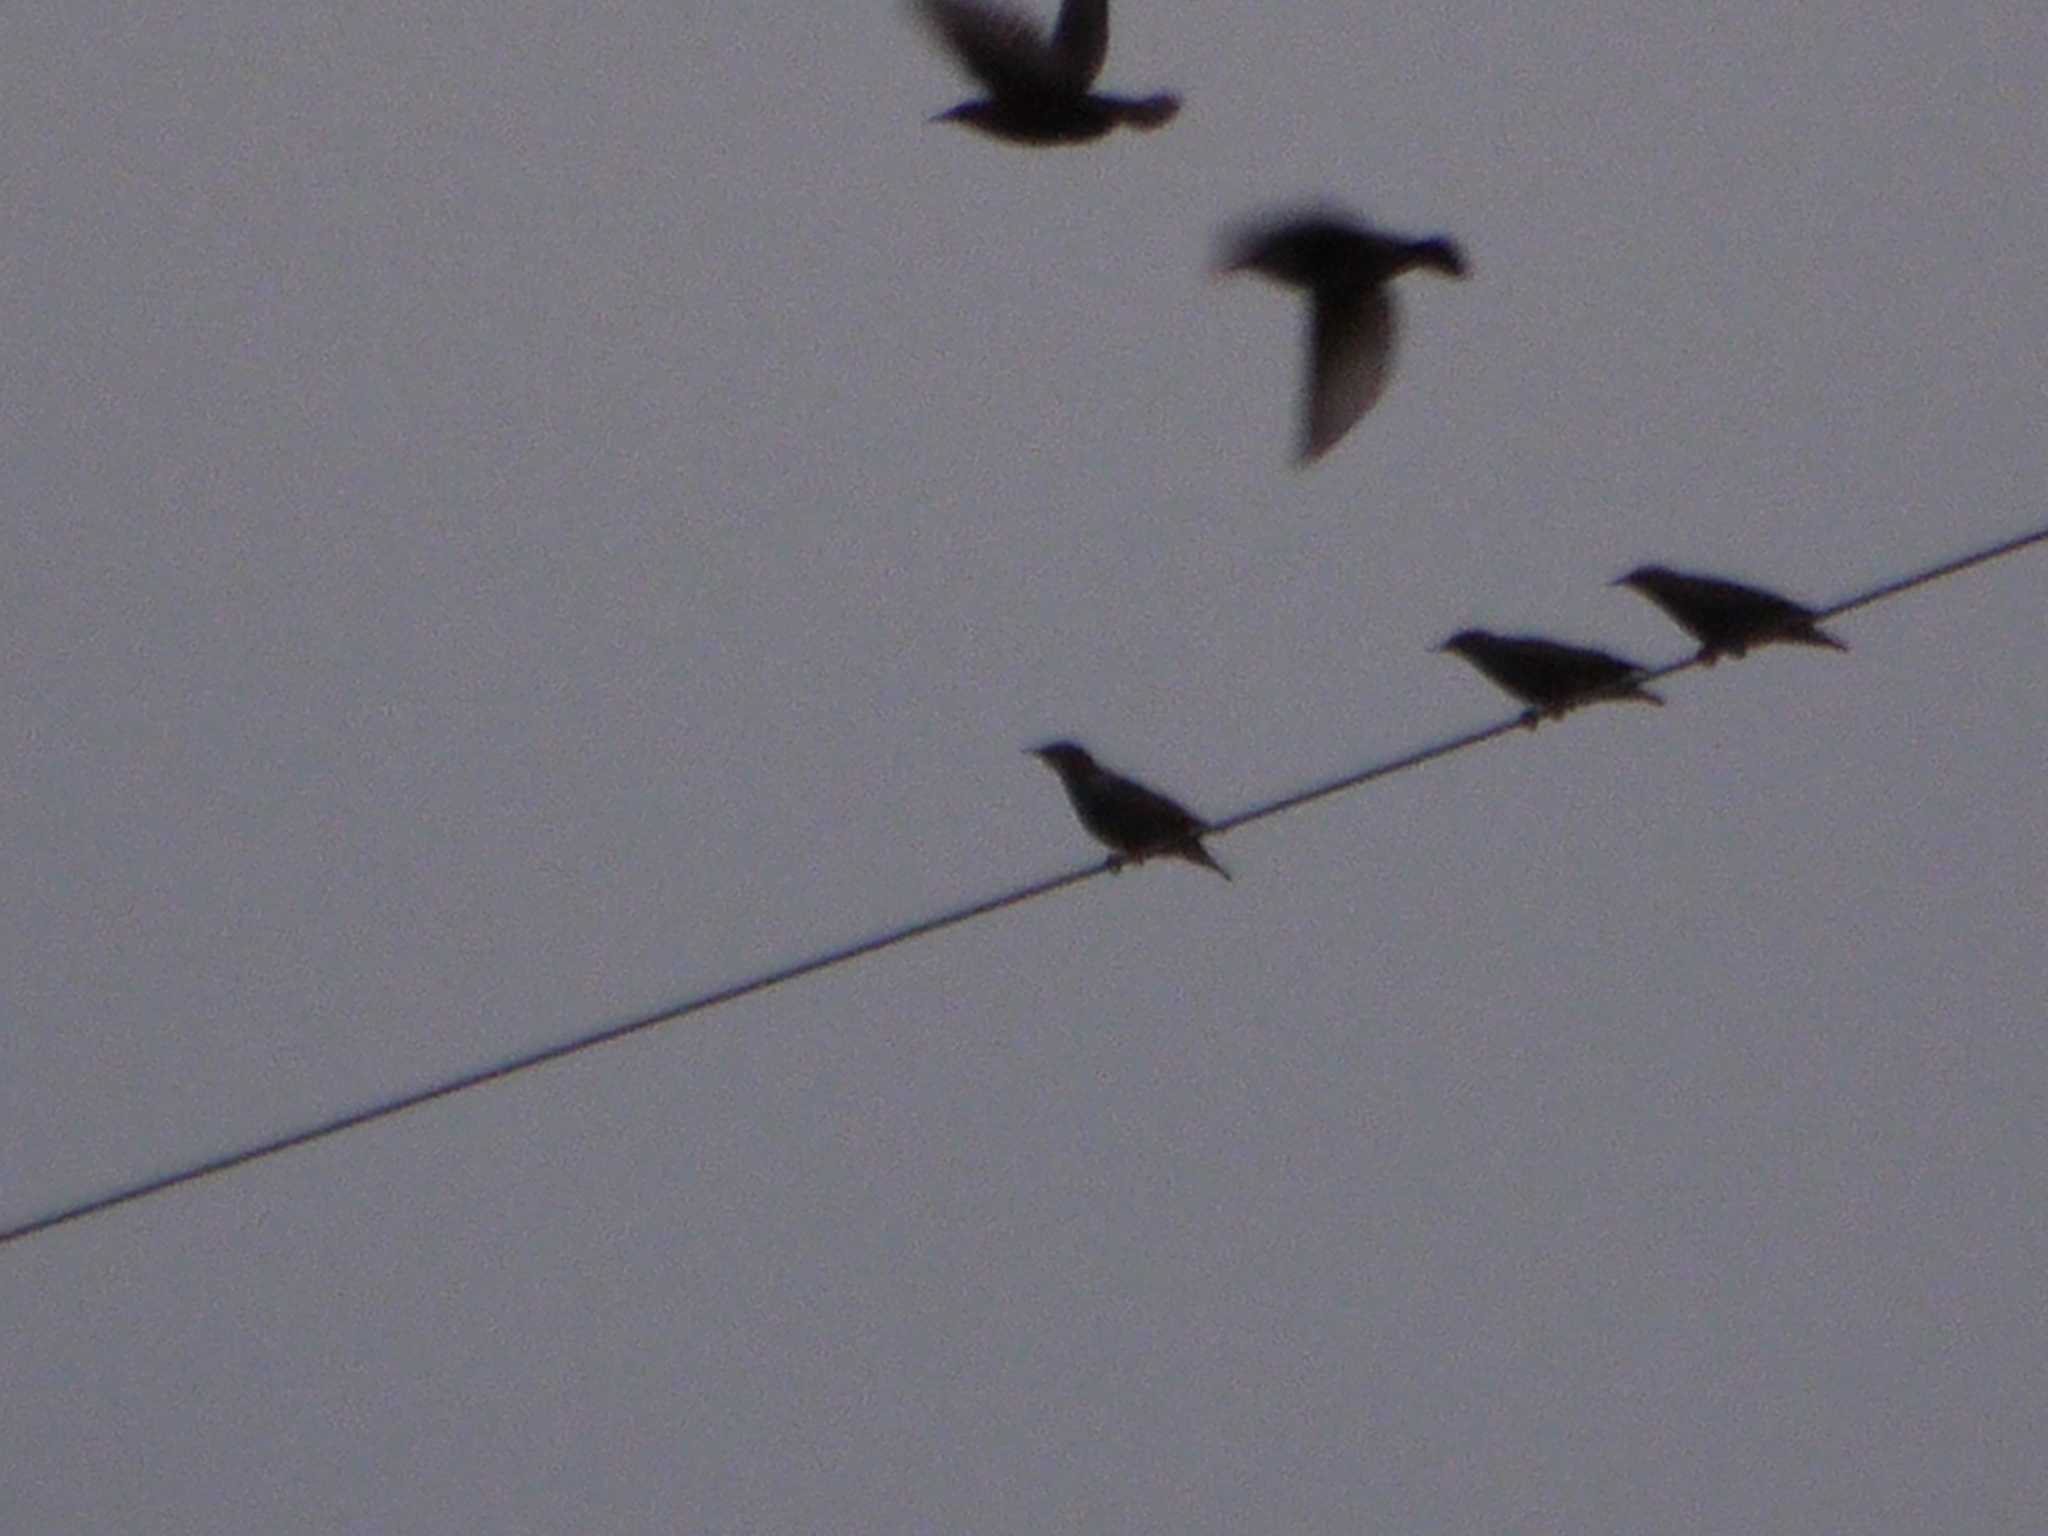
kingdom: Animalia
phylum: Chordata
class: Aves
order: Passeriformes
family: Sturnidae
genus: Sturnus
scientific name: Sturnus vulgaris
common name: Common starling
